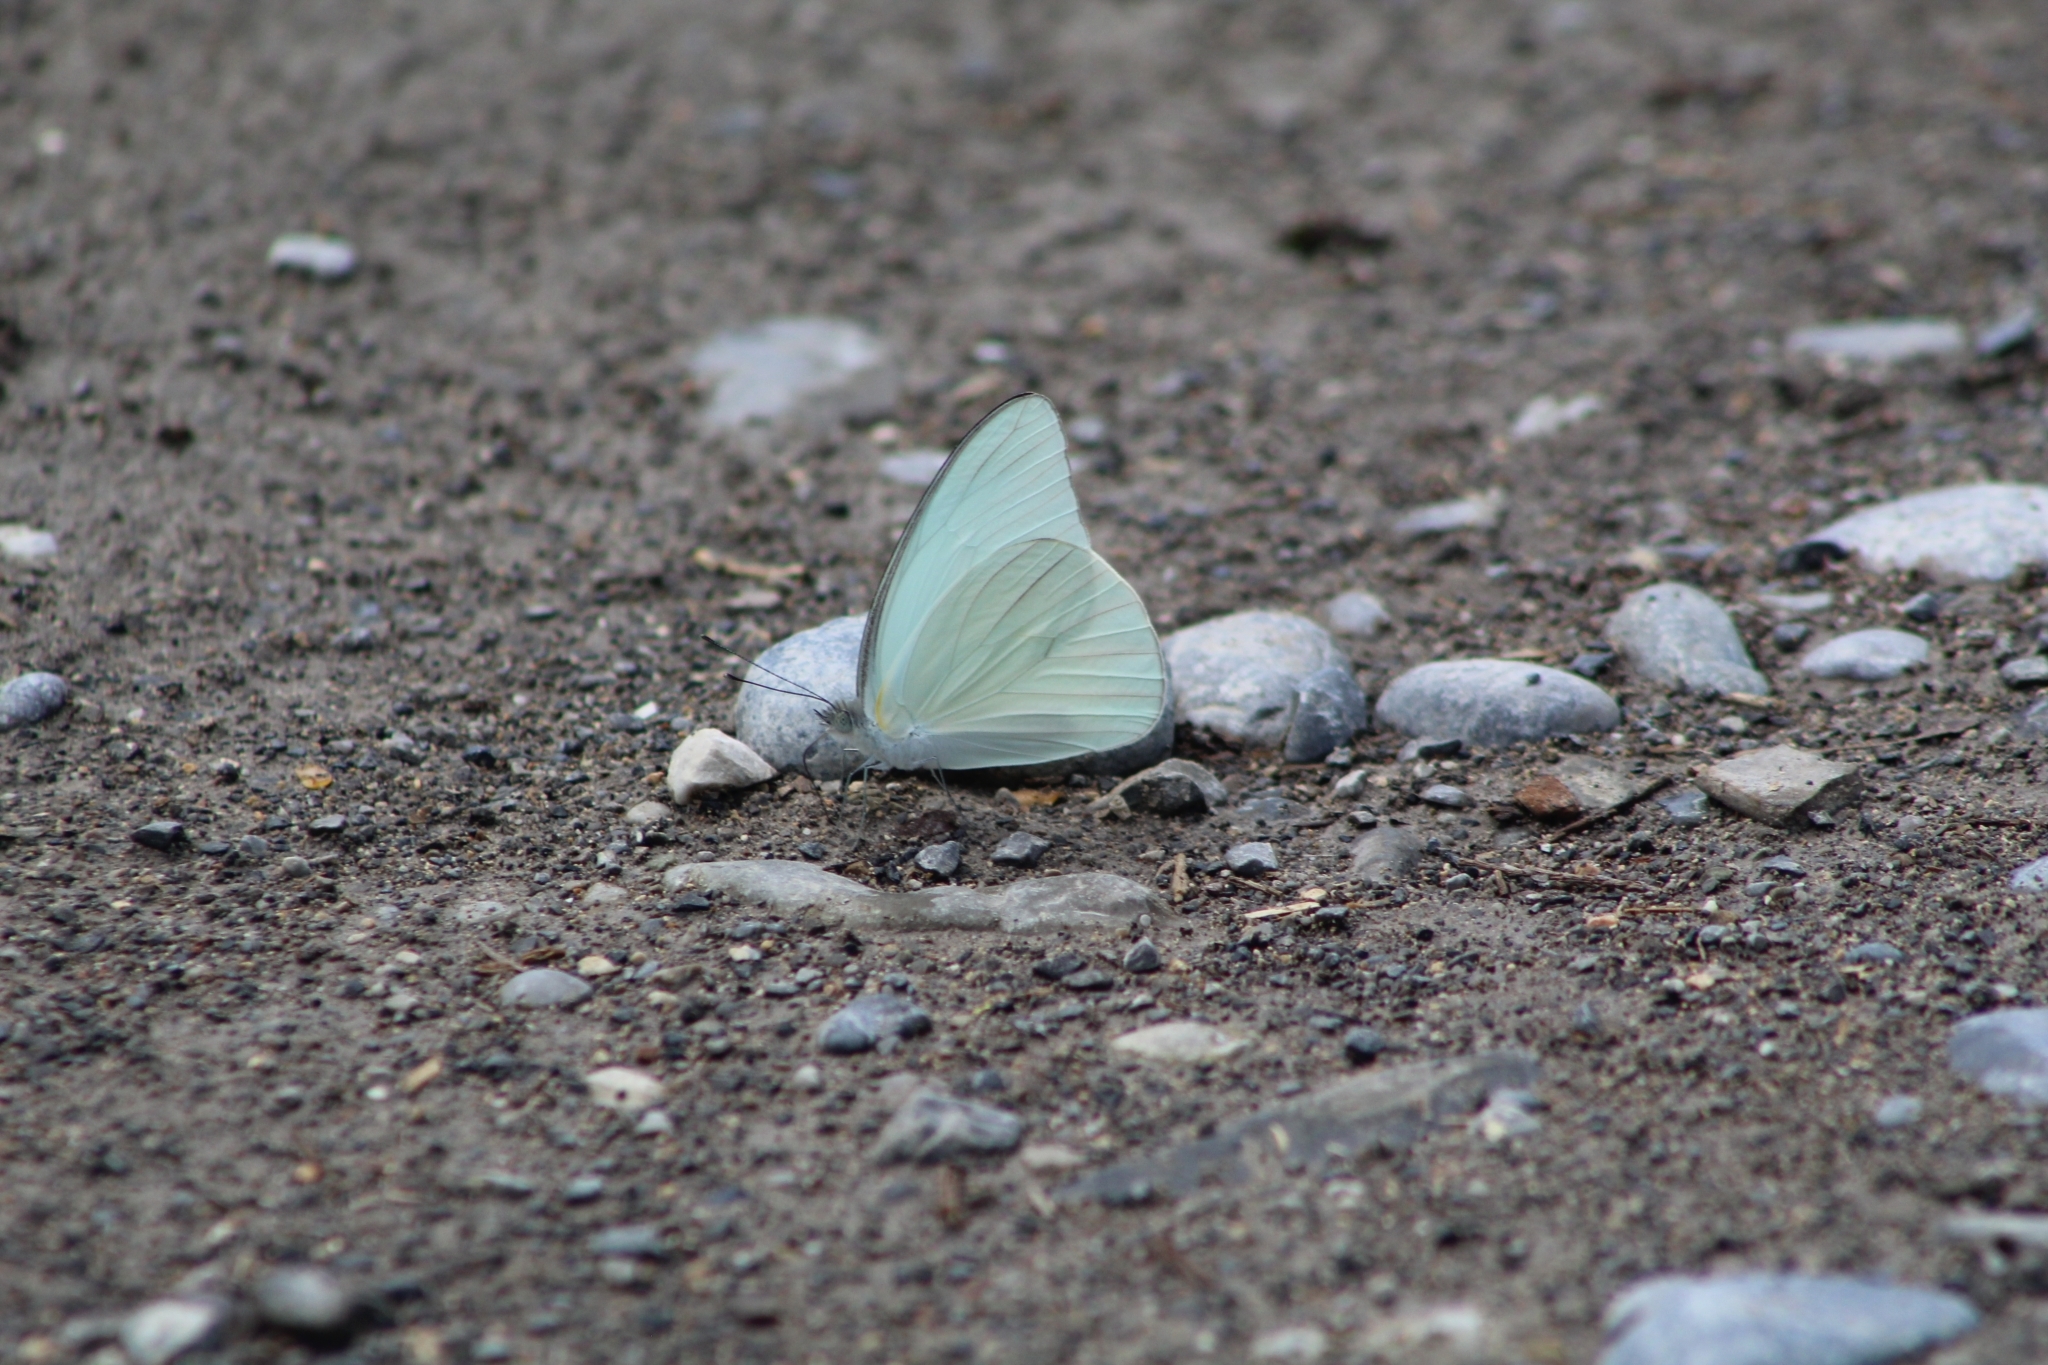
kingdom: Animalia
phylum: Arthropoda
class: Insecta
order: Lepidoptera
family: Pieridae
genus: Glutophrissa
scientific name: Glutophrissa drusilla
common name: Florida white
